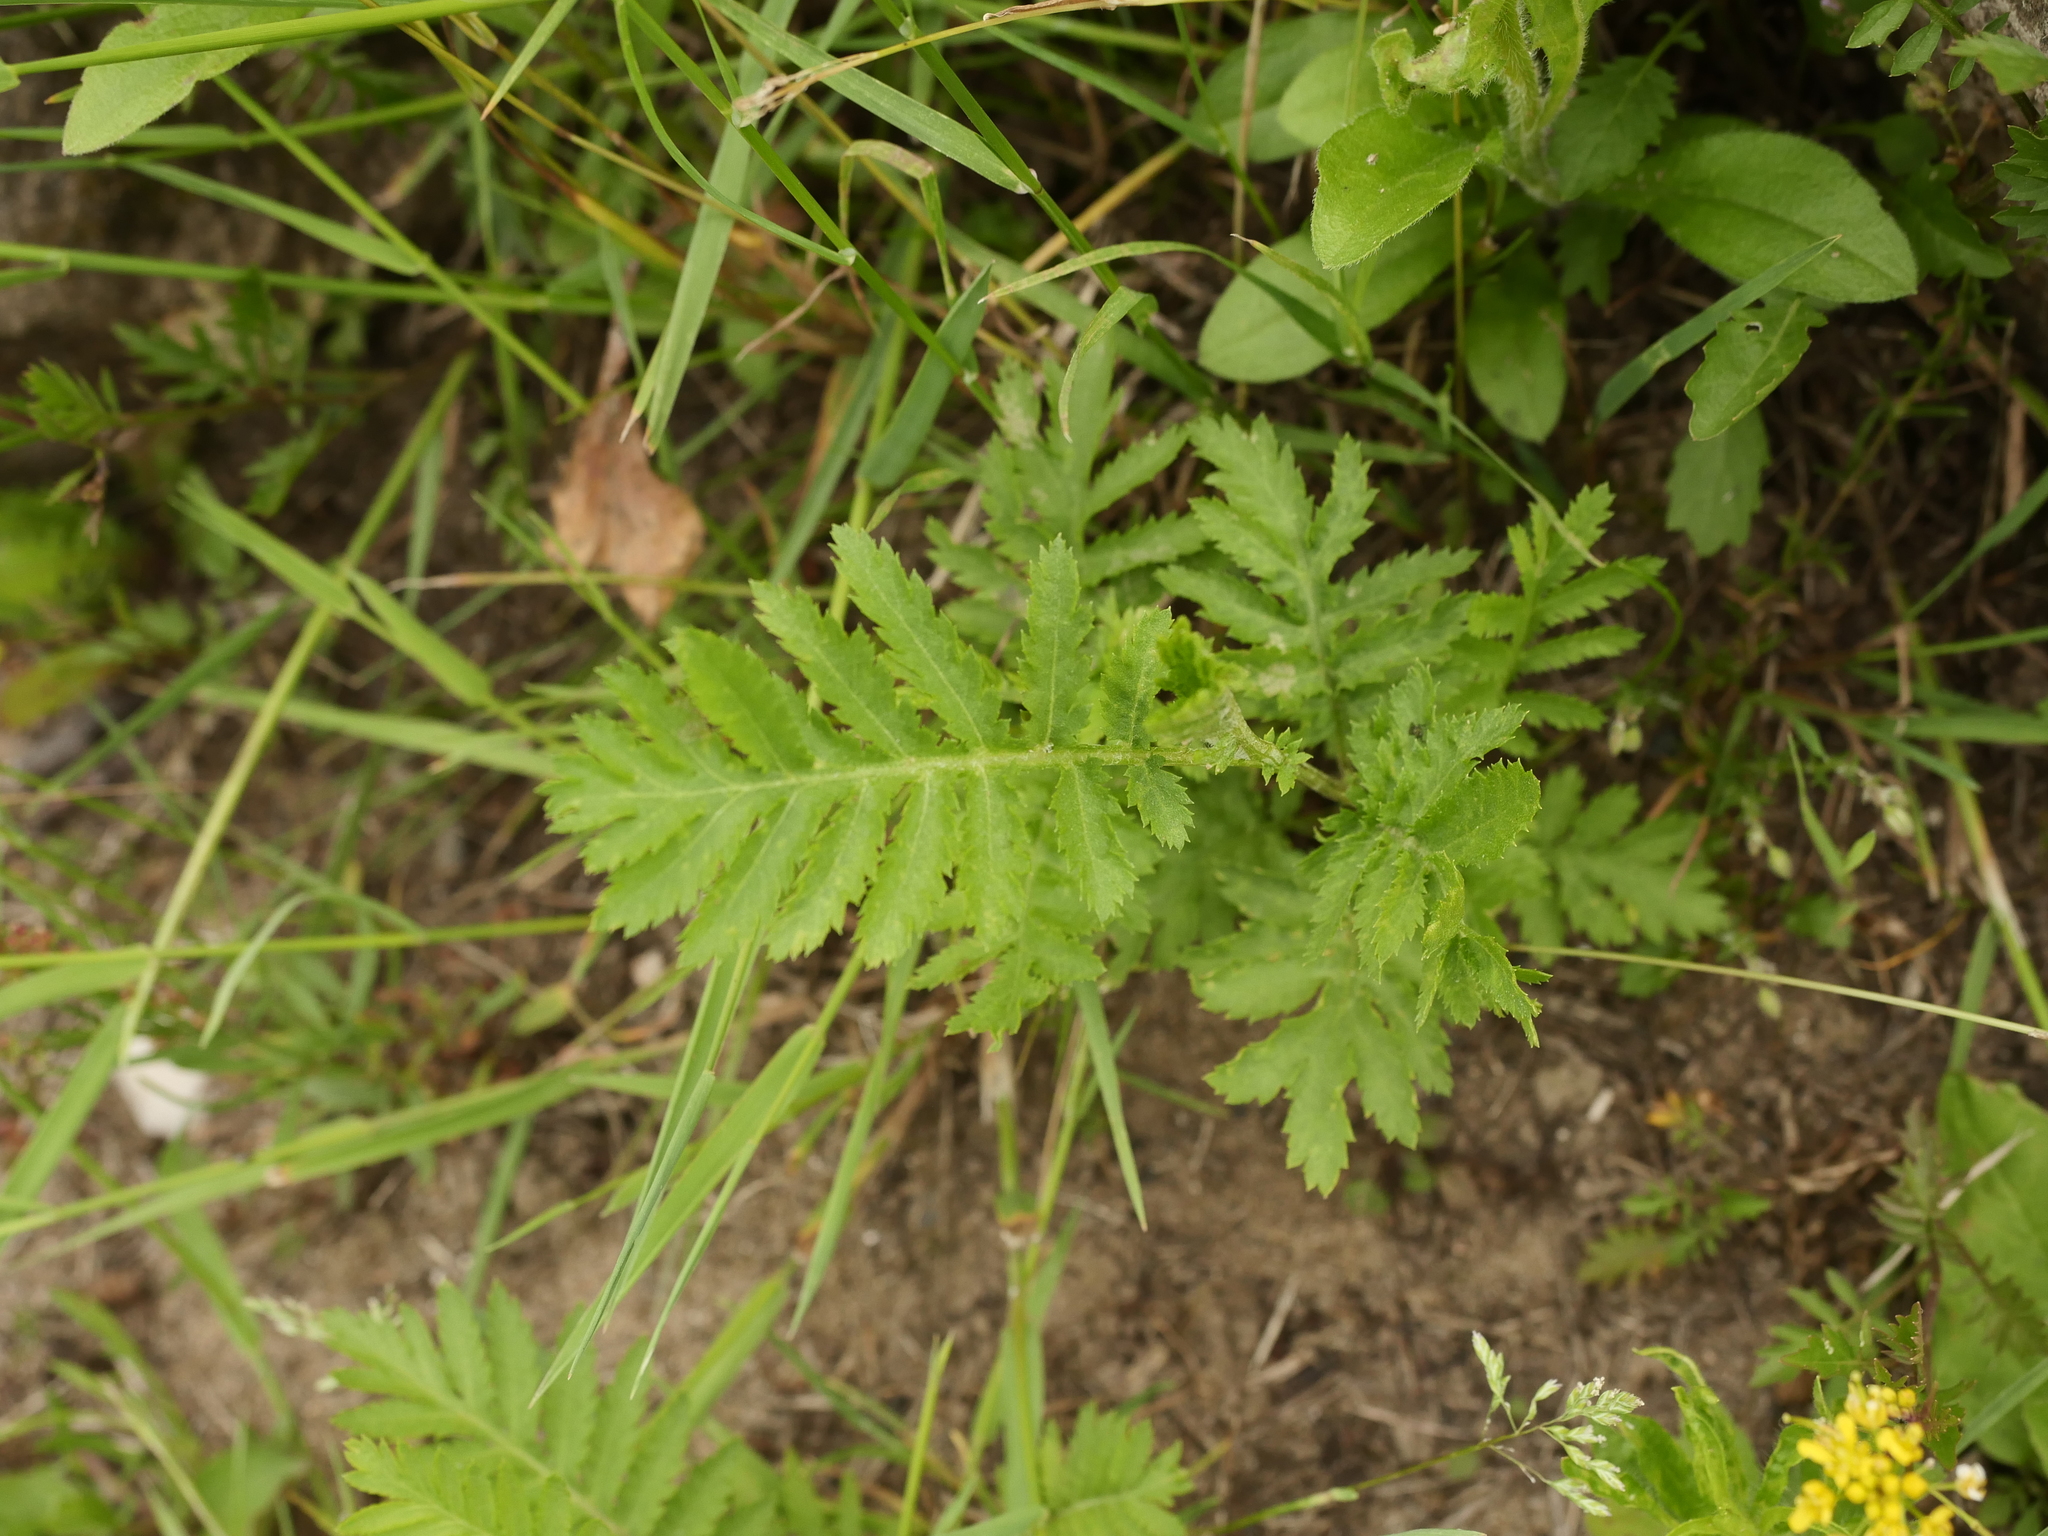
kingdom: Plantae
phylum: Tracheophyta
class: Magnoliopsida
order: Asterales
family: Asteraceae
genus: Tanacetum
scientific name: Tanacetum vulgare
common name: Common tansy
